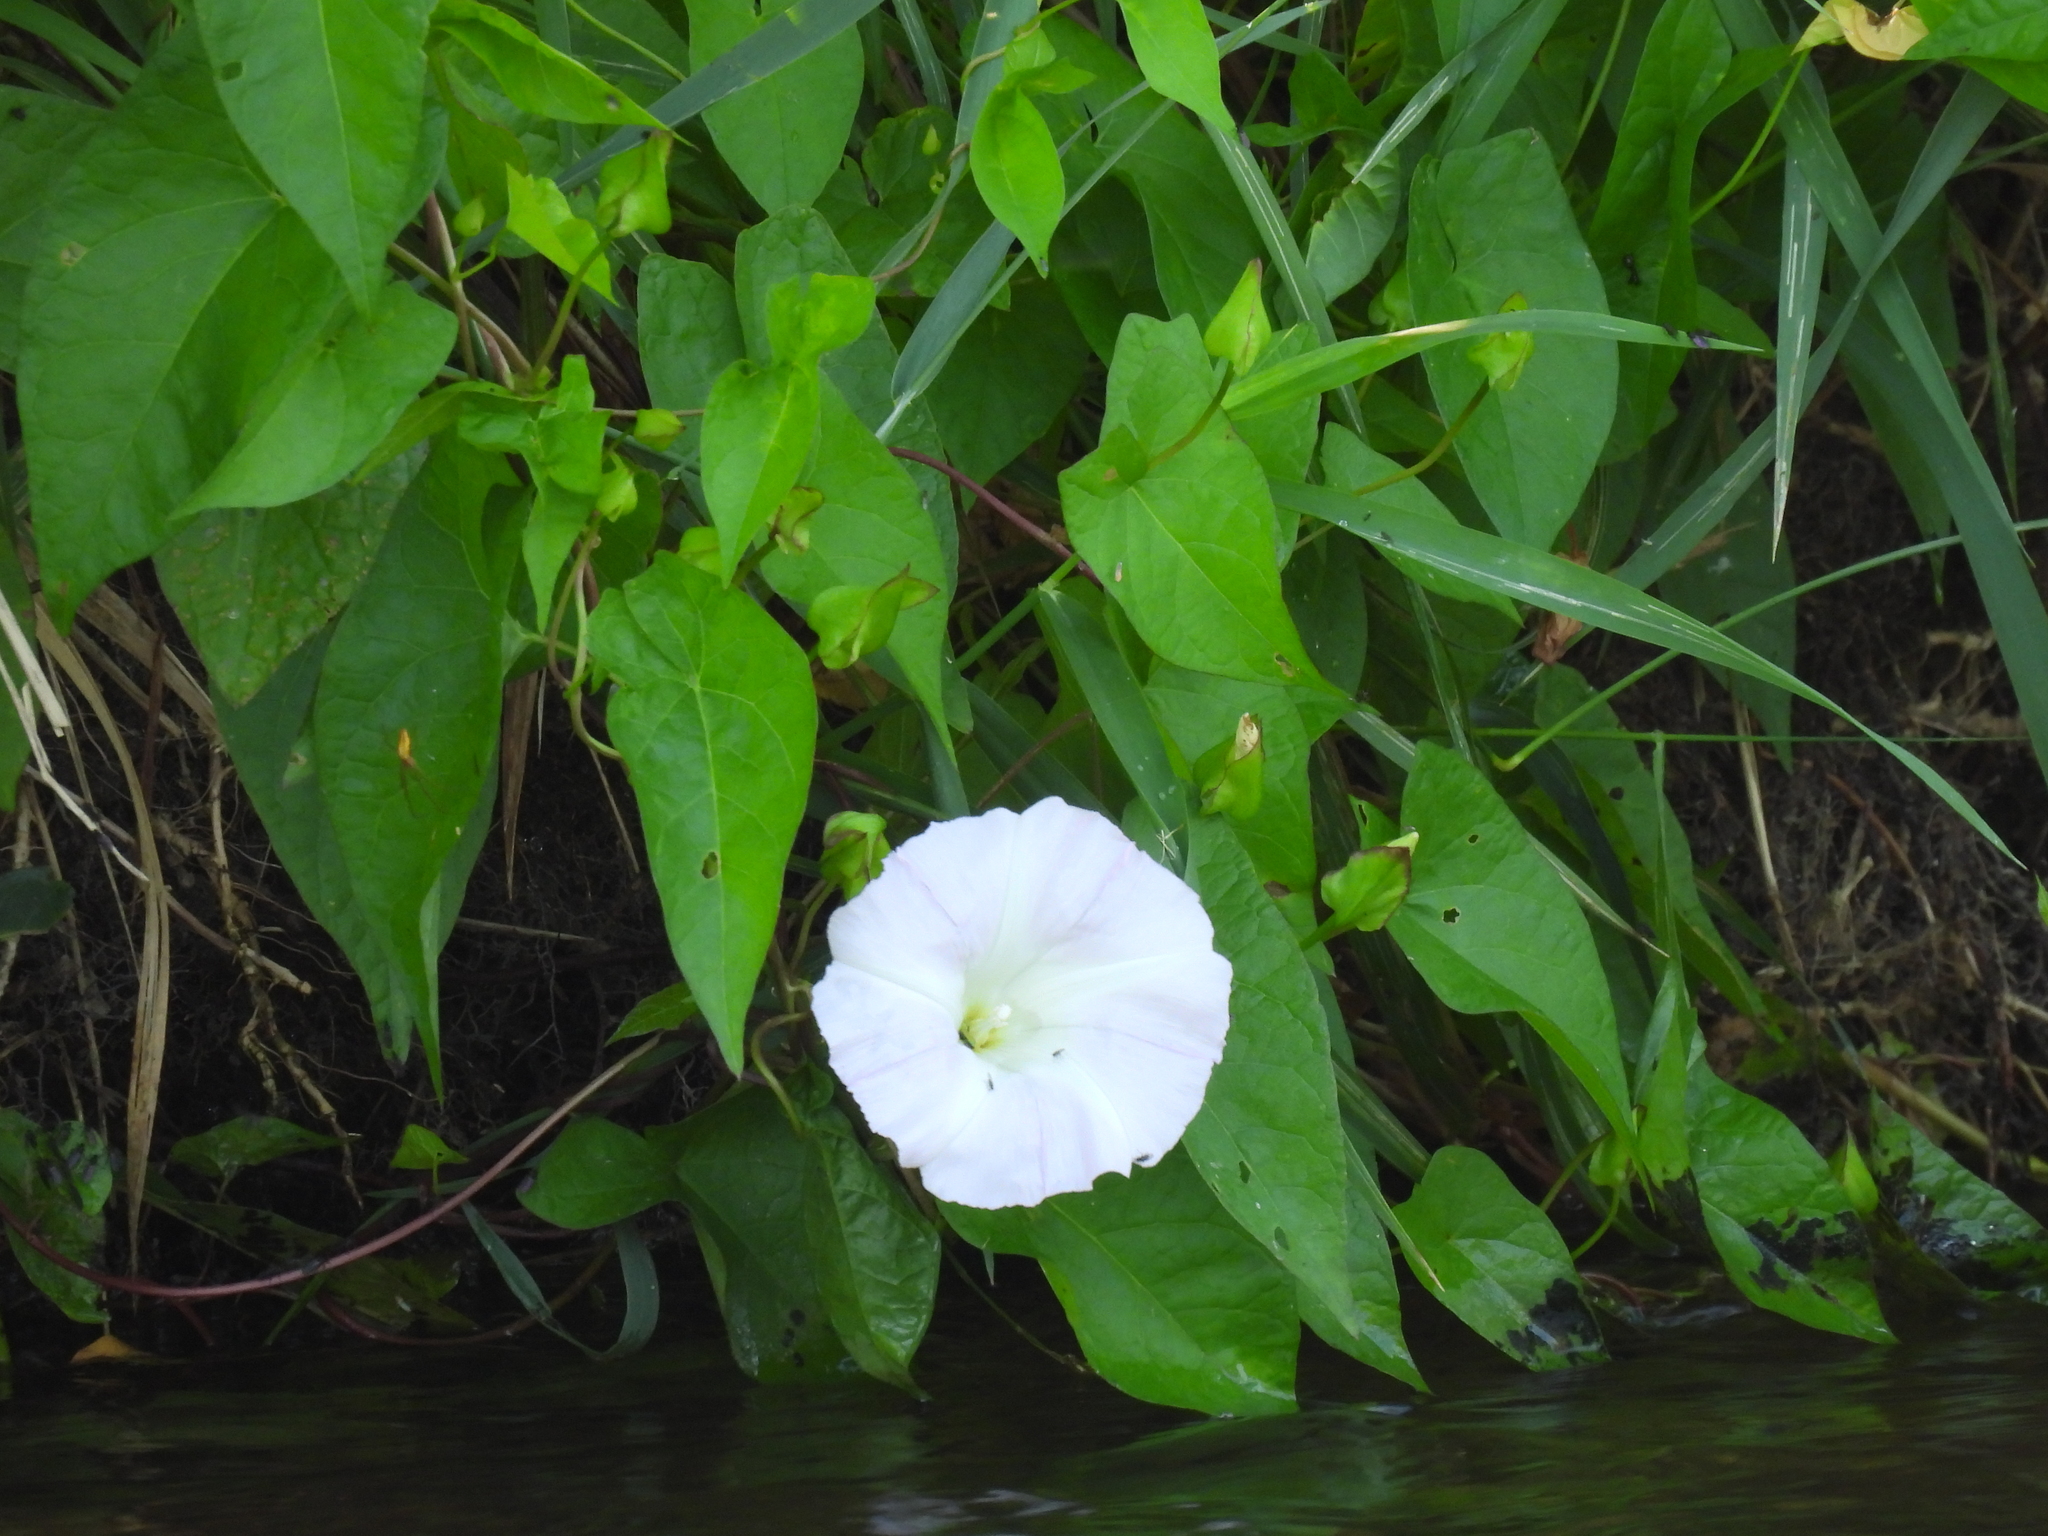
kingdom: Plantae
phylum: Tracheophyta
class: Magnoliopsida
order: Solanales
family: Convolvulaceae
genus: Calystegia
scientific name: Calystegia sepium
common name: Hedge bindweed
